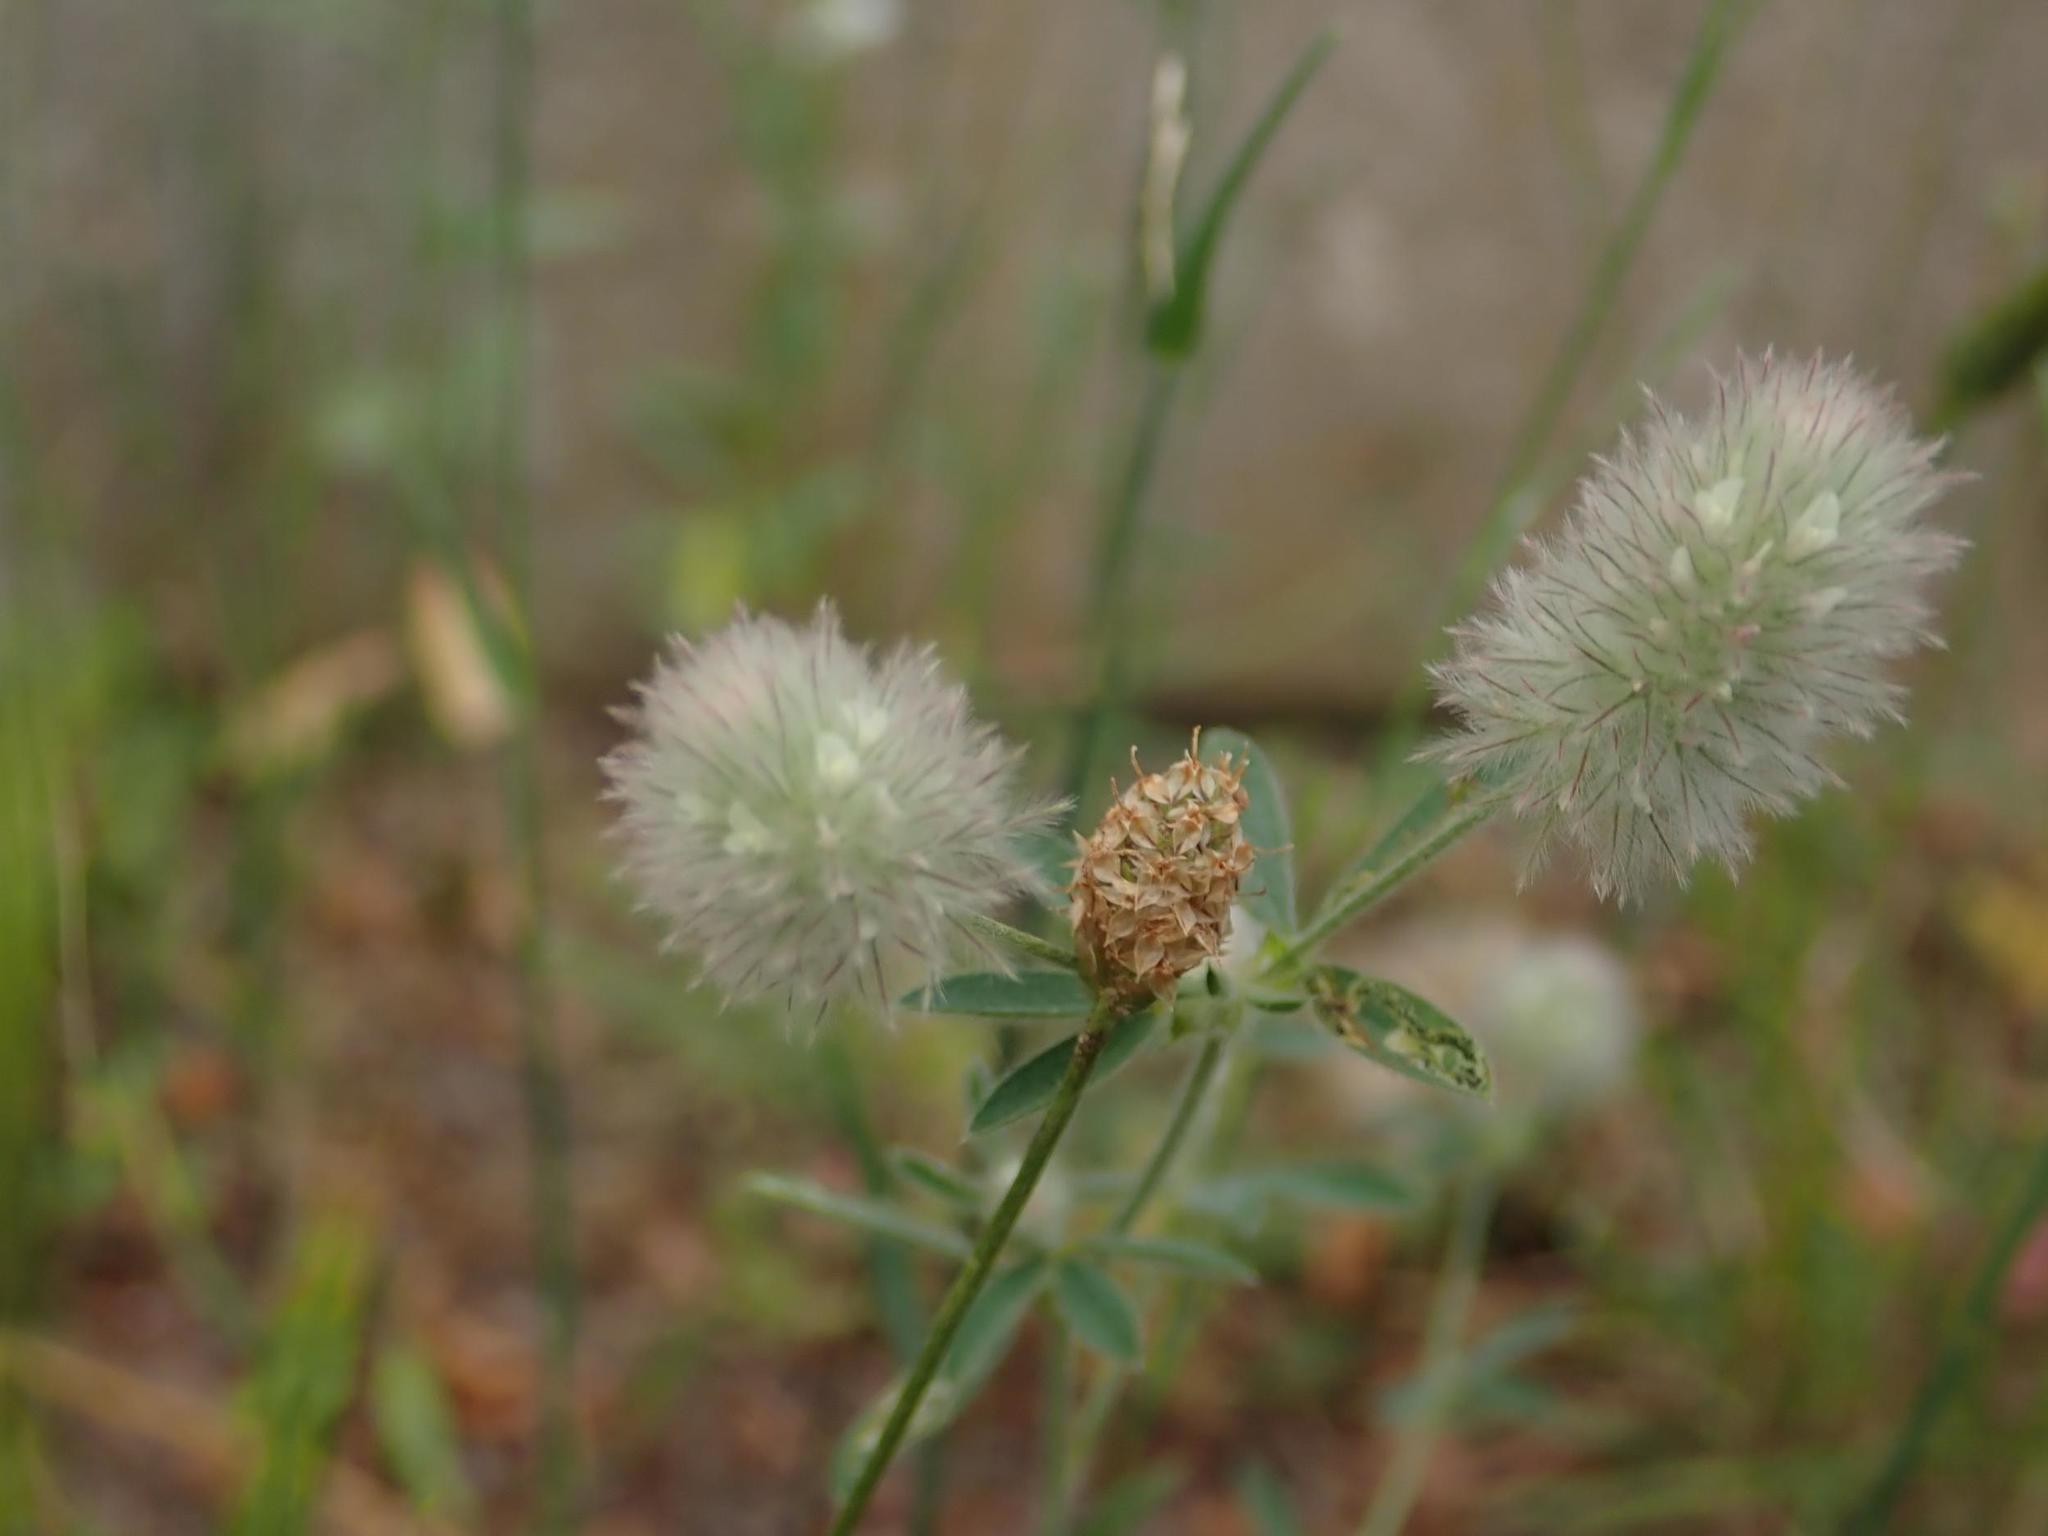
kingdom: Plantae
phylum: Tracheophyta
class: Magnoliopsida
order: Fabales
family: Fabaceae
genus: Trifolium
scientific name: Trifolium arvense
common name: Hare's-foot clover
